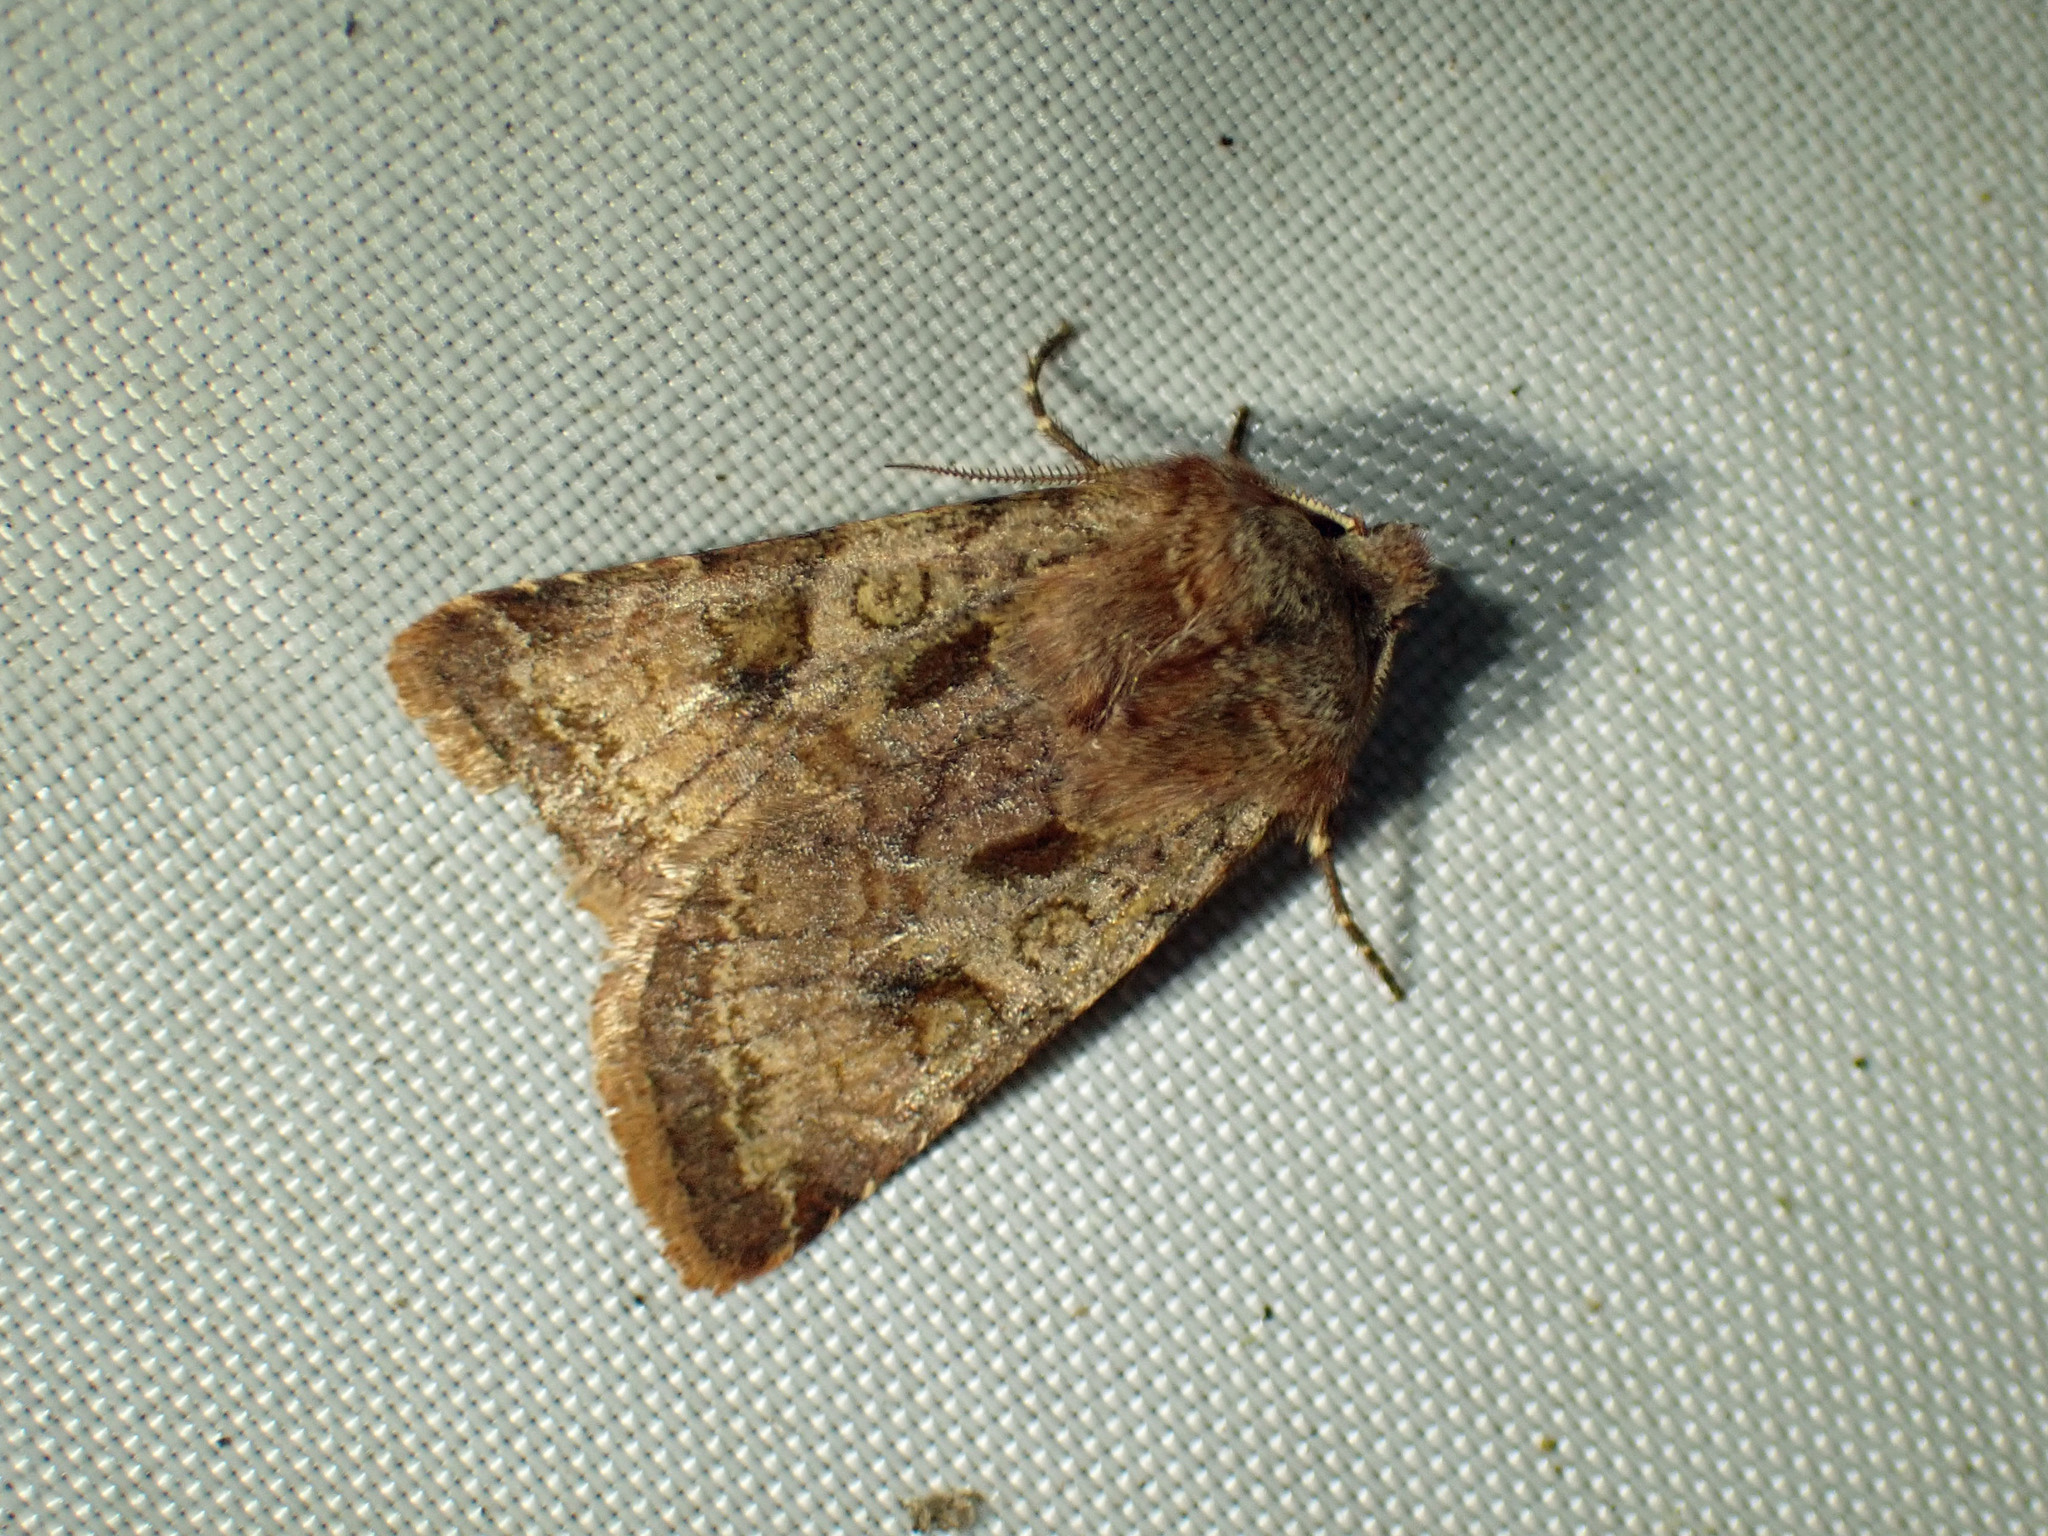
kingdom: Animalia
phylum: Arthropoda
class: Insecta
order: Lepidoptera
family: Noctuidae
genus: Cerastis
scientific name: Cerastis salicarum
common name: Willow dart
